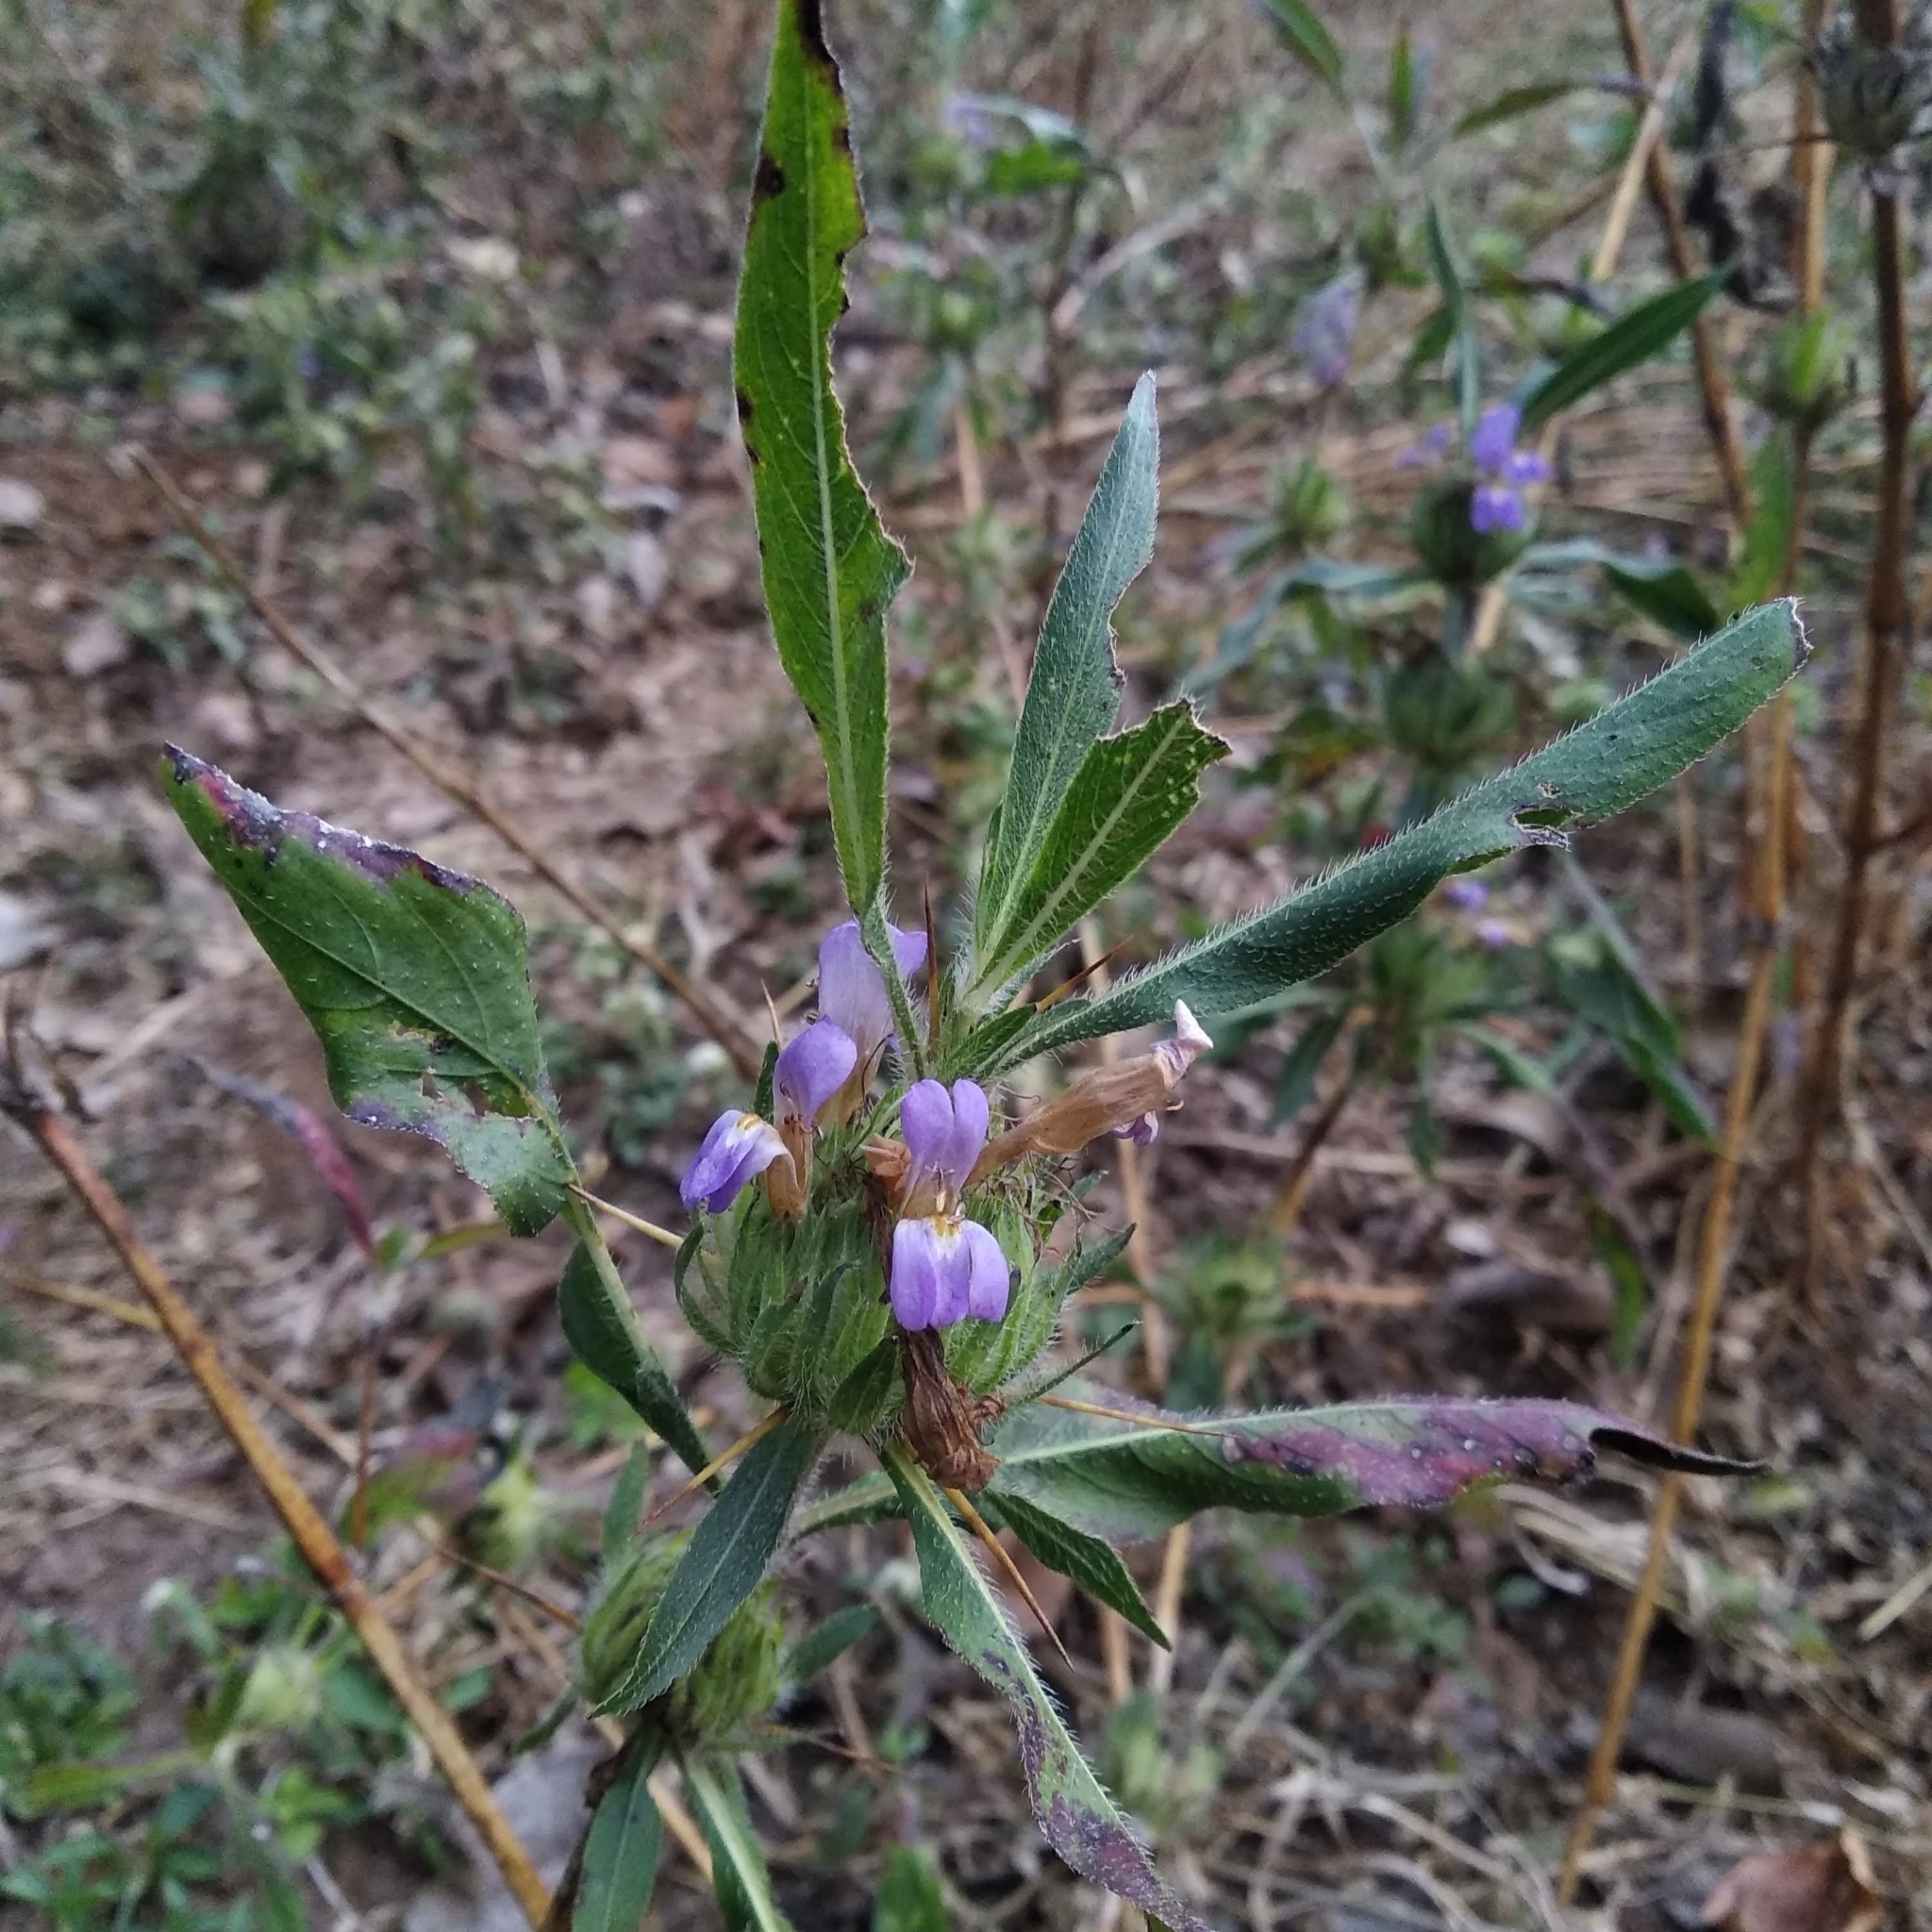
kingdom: Plantae
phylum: Tracheophyta
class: Magnoliopsida
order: Lamiales
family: Acanthaceae
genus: Hygrophila
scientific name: Hygrophila auriculata
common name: Hygrophila
